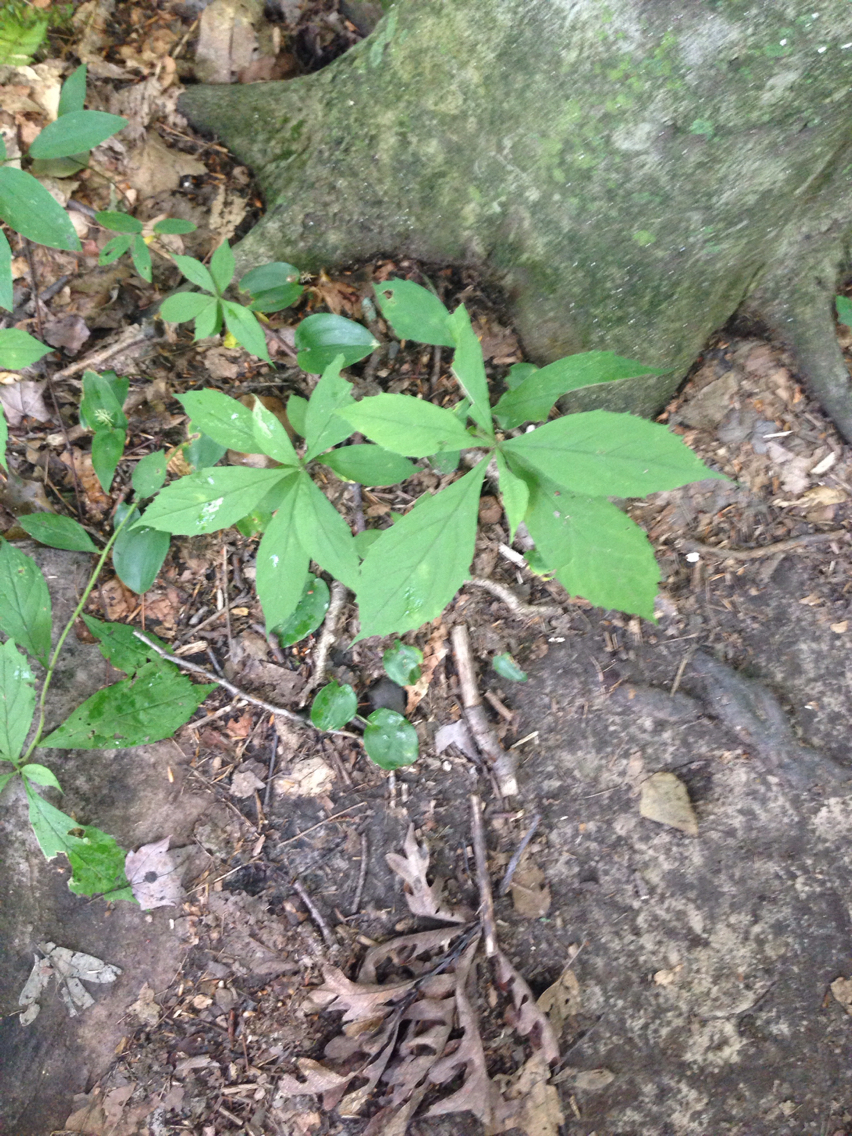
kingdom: Plantae
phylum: Tracheophyta
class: Magnoliopsida
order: Asterales
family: Asteraceae
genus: Oclemena
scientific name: Oclemena acuminata
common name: Mountain aster
